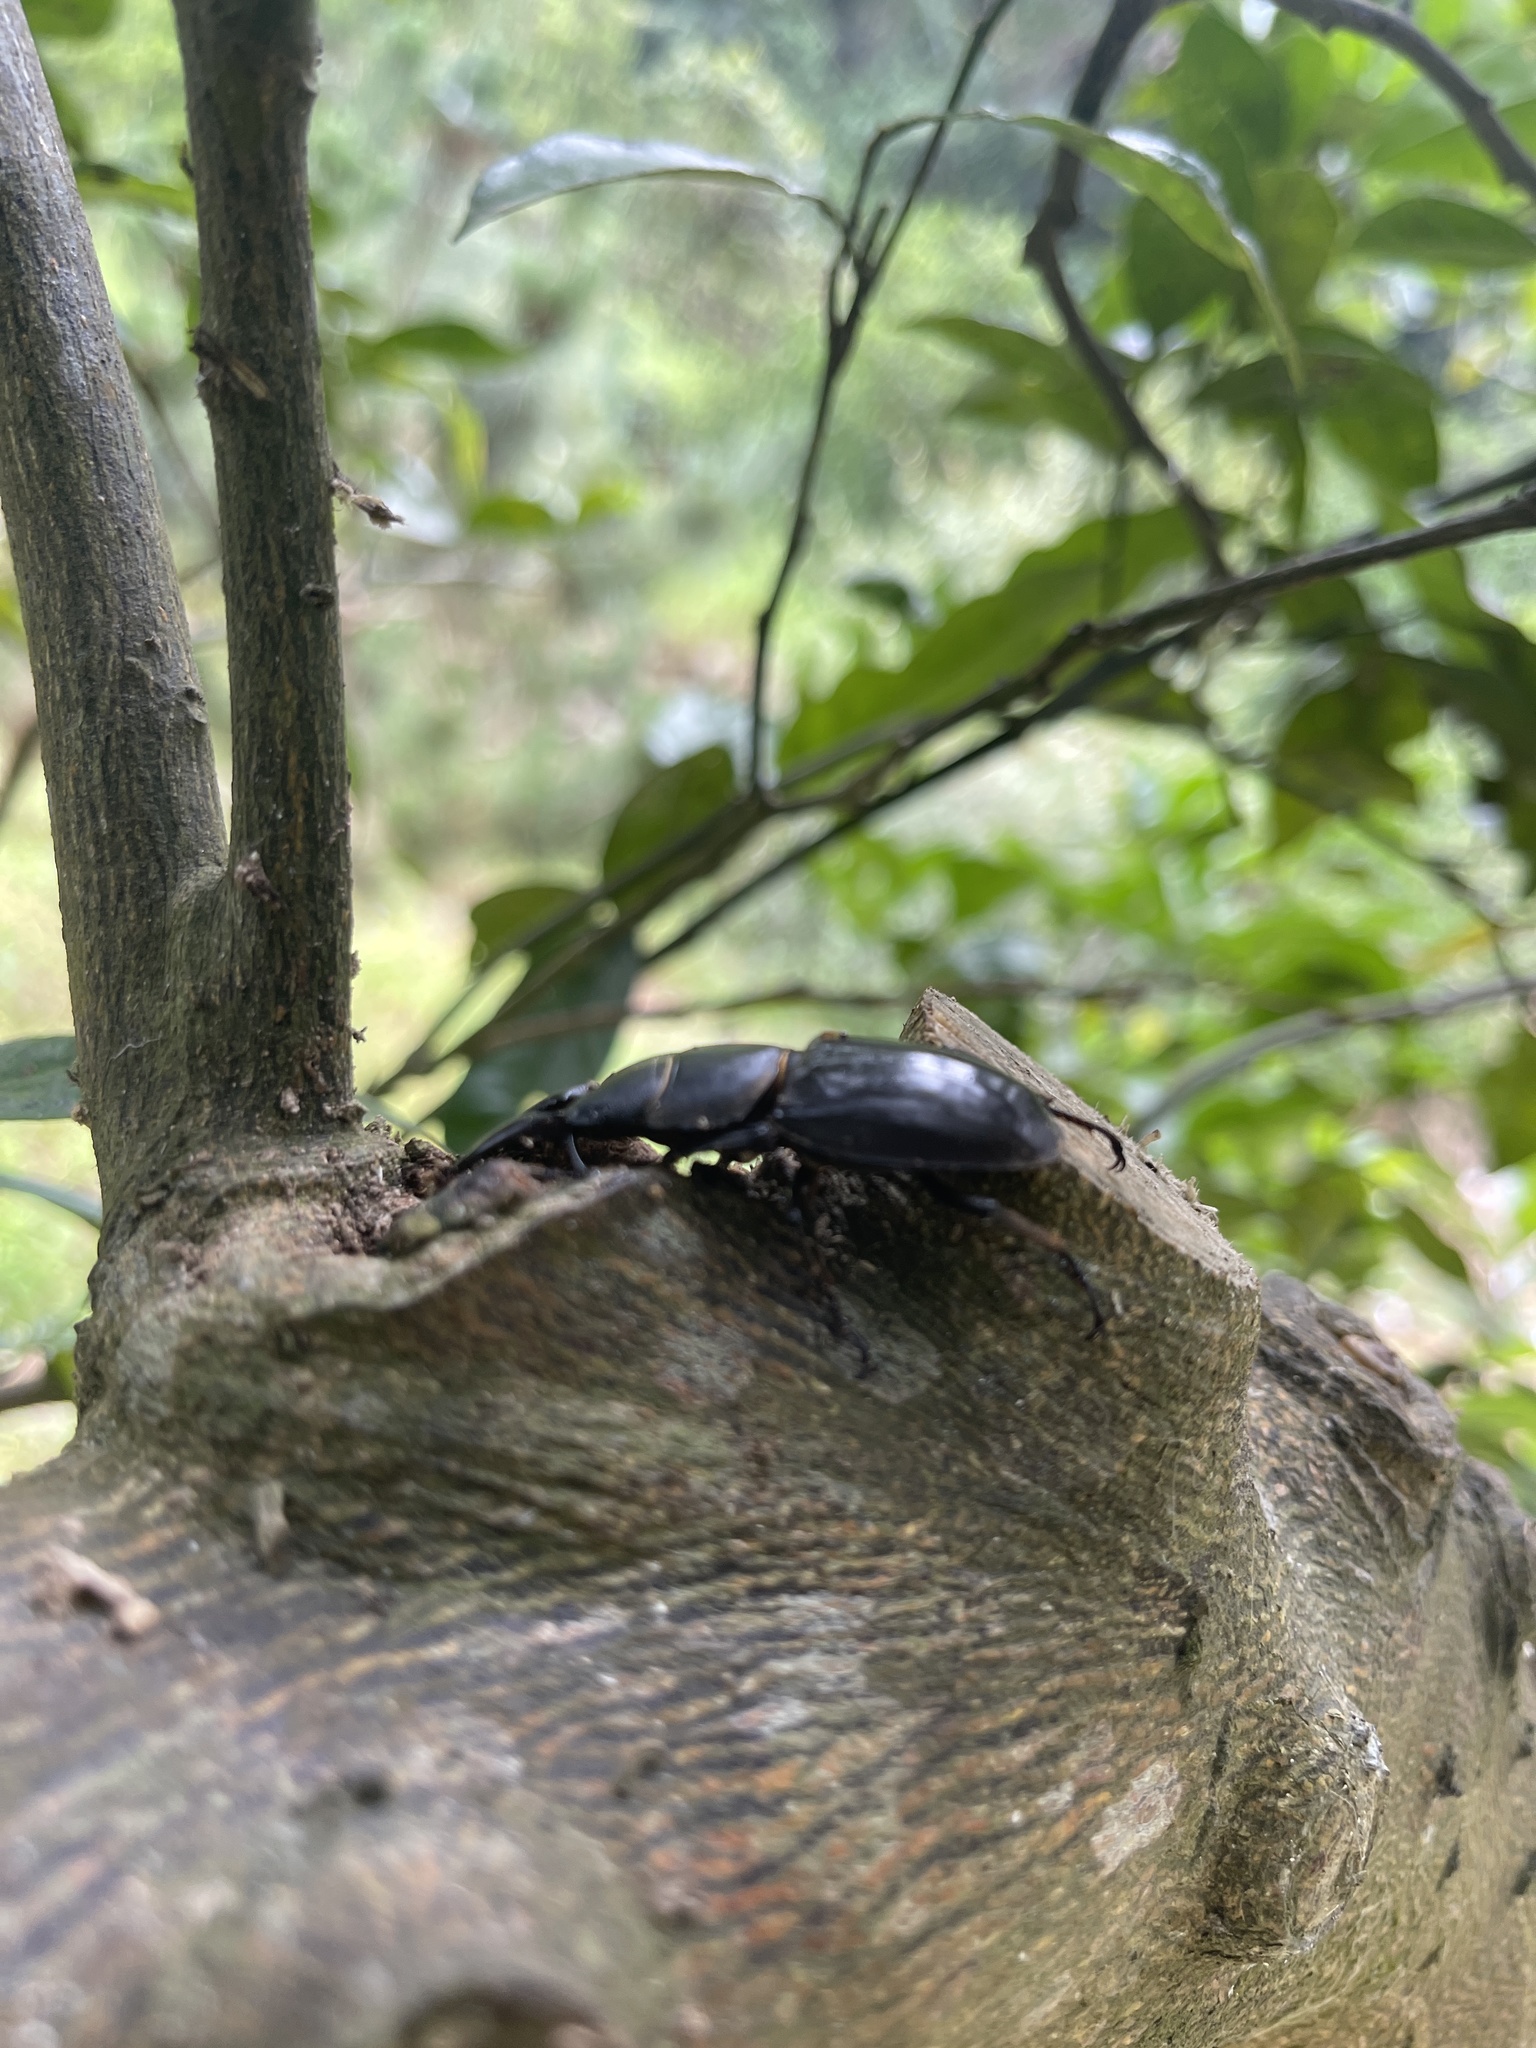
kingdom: Animalia
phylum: Arthropoda
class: Insecta
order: Coleoptera
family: Lucanidae
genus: Serrognathus
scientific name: Serrognathus titanus
